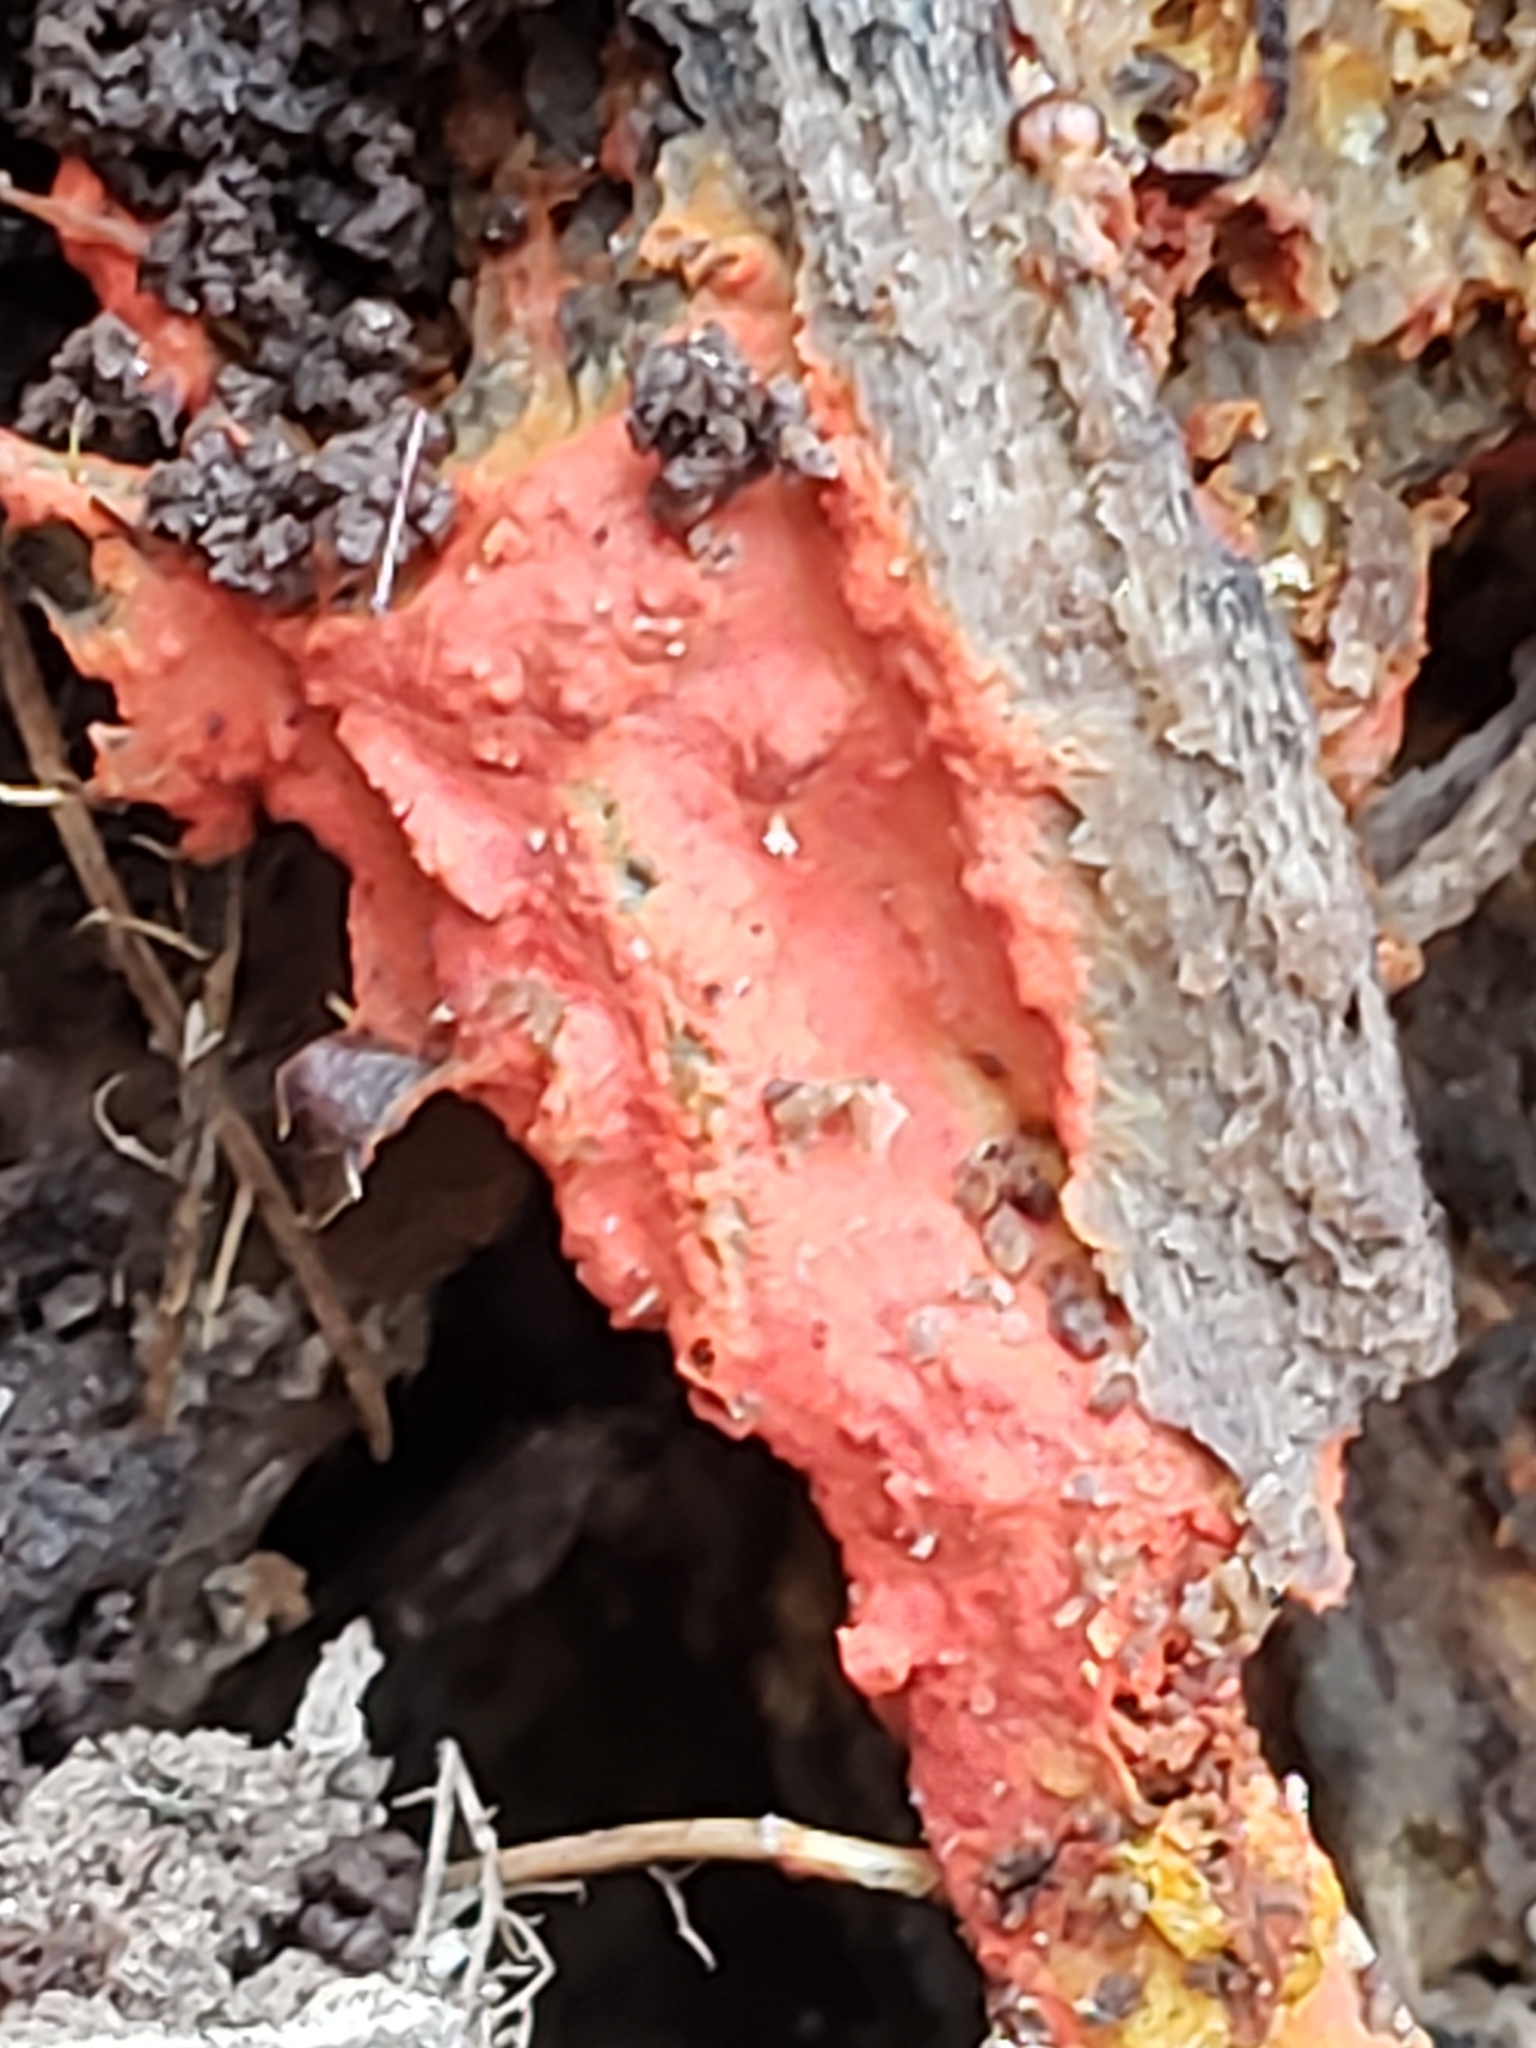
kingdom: Fungi
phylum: Basidiomycota
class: Agaricomycetes
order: Polyporales
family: Meruliaceae
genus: Phlebia
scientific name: Phlebia coccineofulva
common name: Scarlet waxcrust
